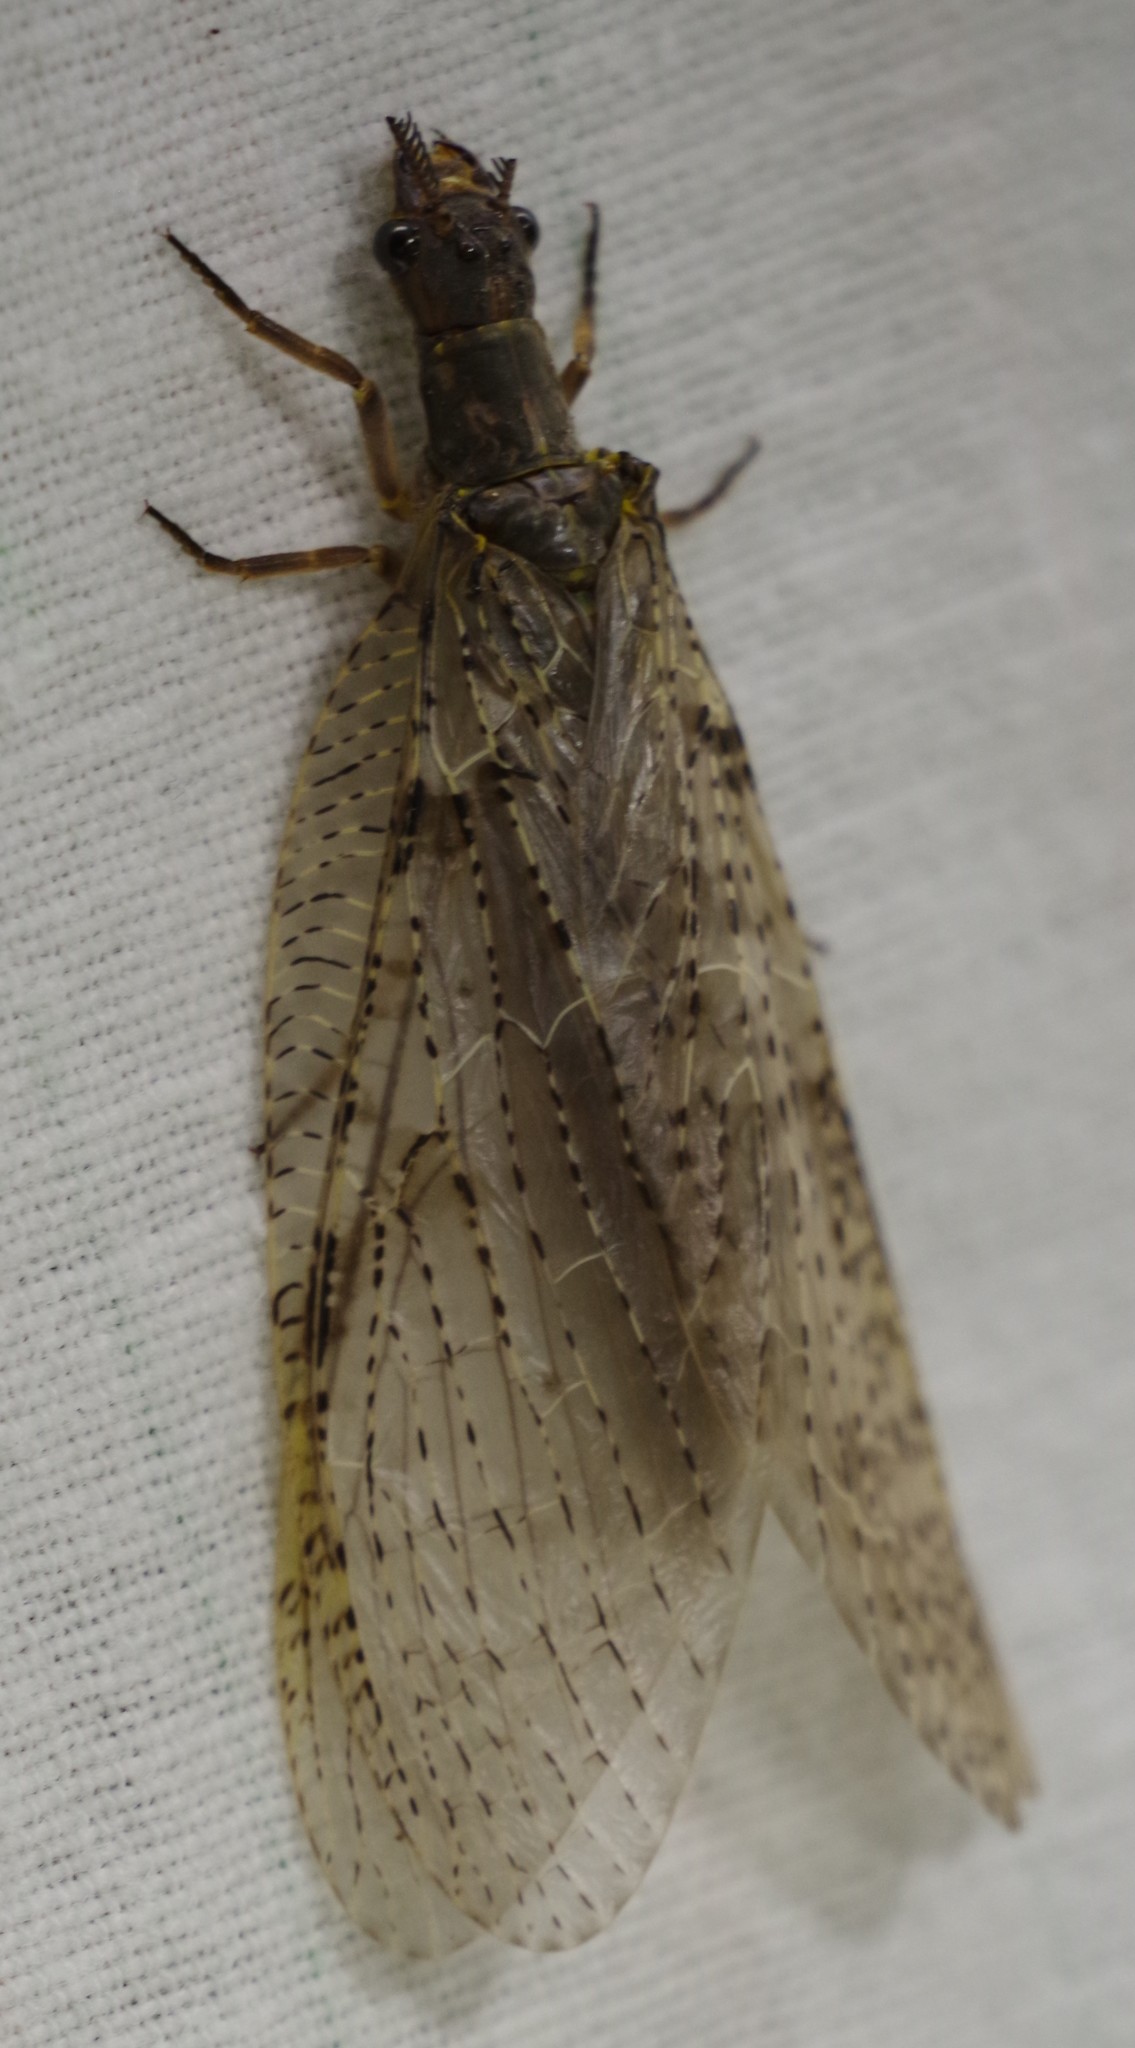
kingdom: Animalia
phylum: Arthropoda
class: Insecta
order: Megaloptera
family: Corydalidae
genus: Chauliodes
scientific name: Chauliodes pectinicornis
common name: Summer fishfly
